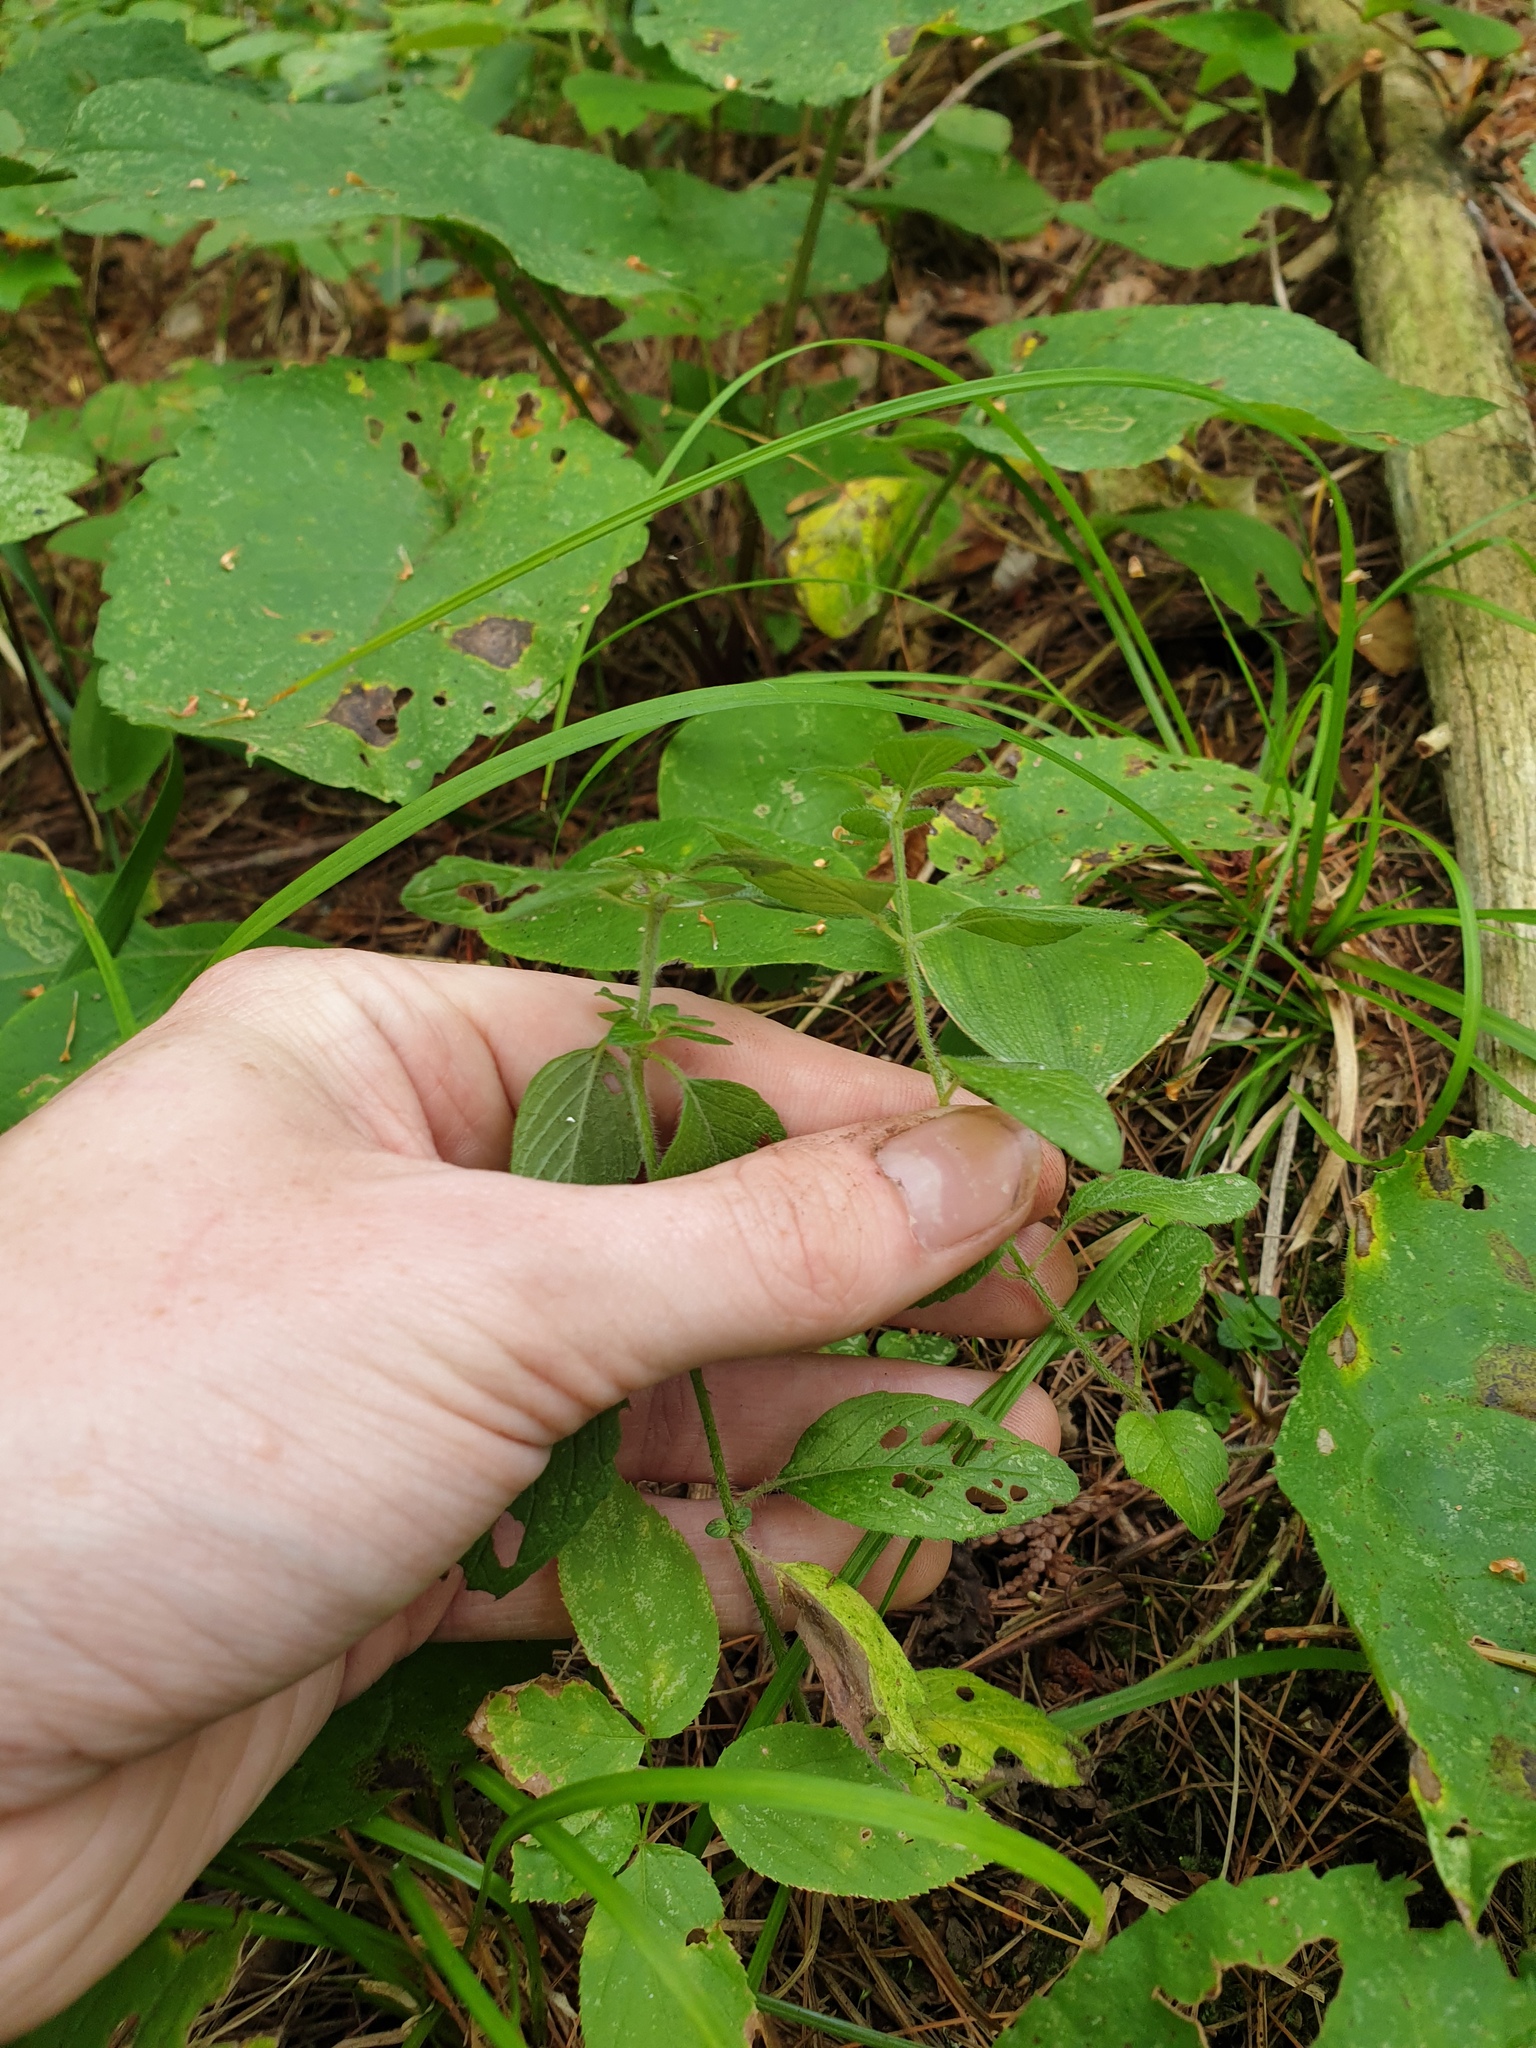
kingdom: Plantae
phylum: Tracheophyta
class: Magnoliopsida
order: Lamiales
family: Lamiaceae
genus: Clinopodium
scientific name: Clinopodium vulgare
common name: Wild basil
